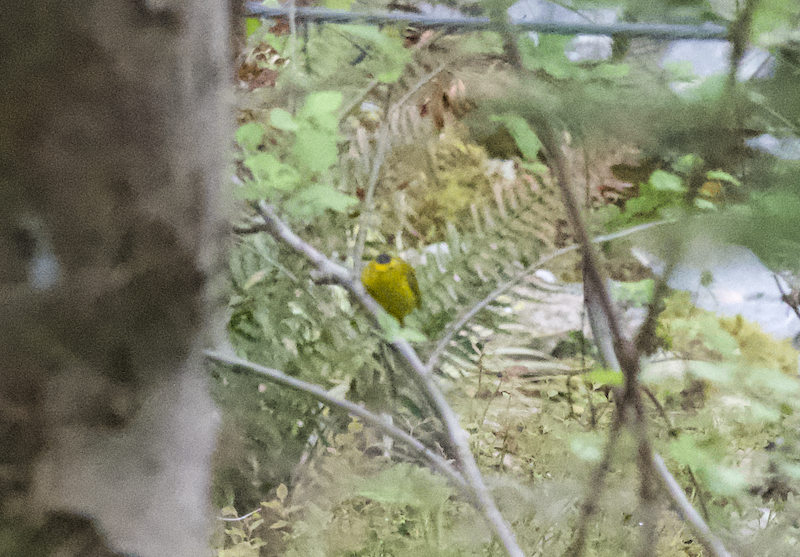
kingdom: Animalia
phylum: Chordata
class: Aves
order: Passeriformes
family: Parulidae
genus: Cardellina
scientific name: Cardellina pusilla
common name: Wilson's warbler
